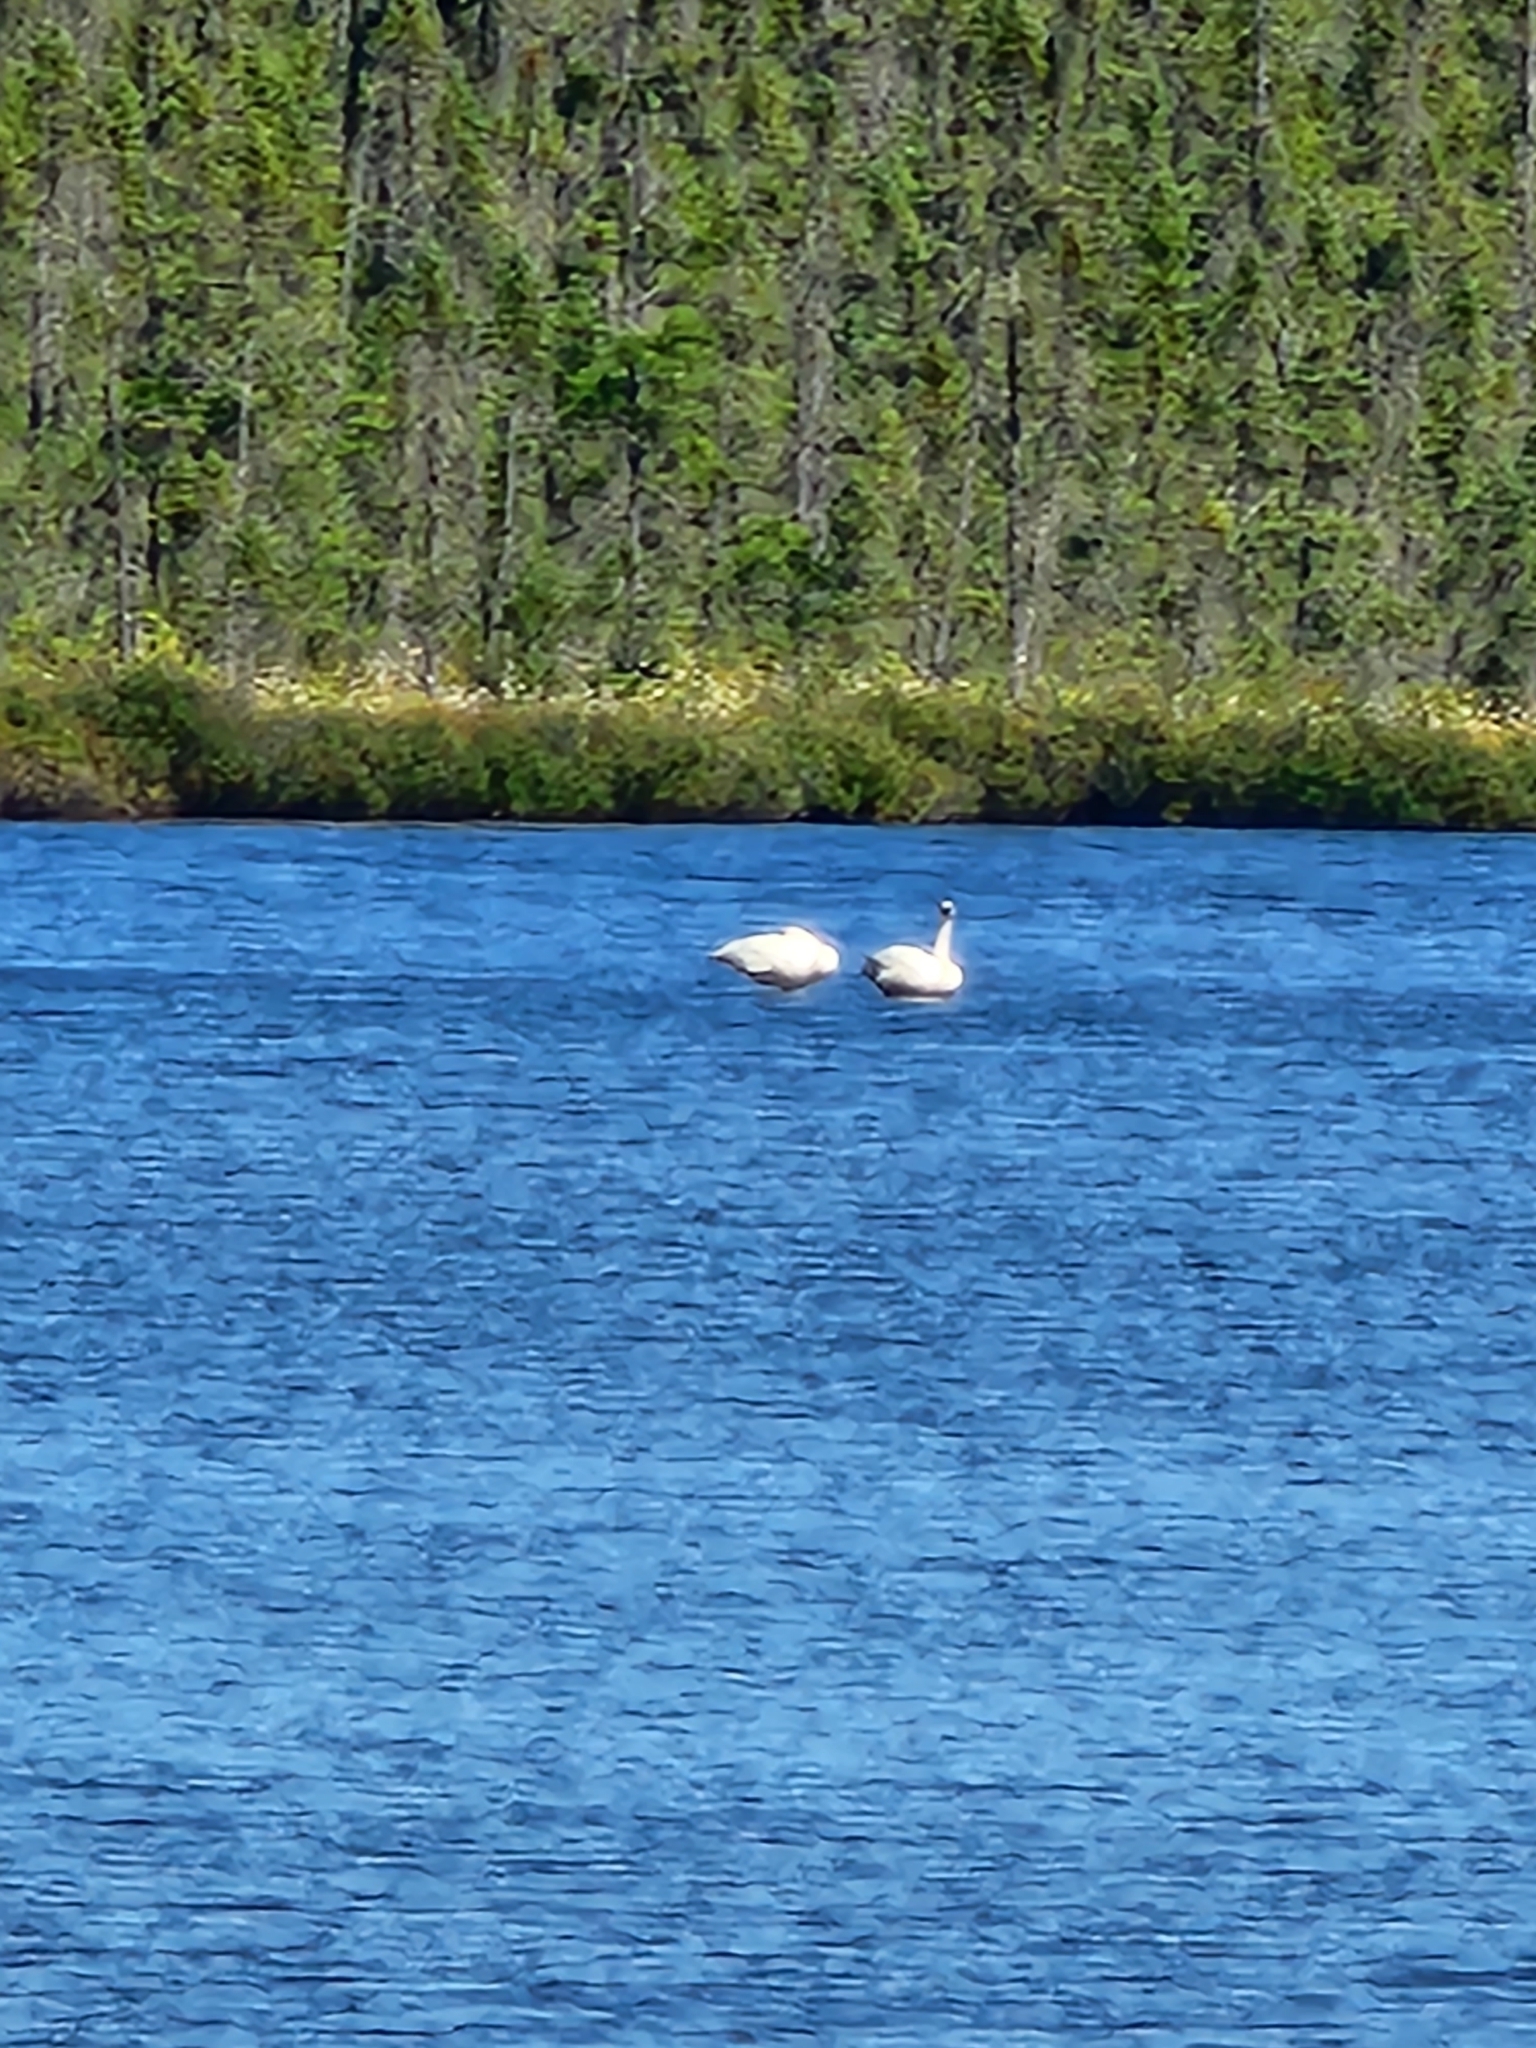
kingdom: Animalia
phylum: Chordata
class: Aves
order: Anseriformes
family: Anatidae
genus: Cygnus
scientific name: Cygnus buccinator
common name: Trumpeter swan
